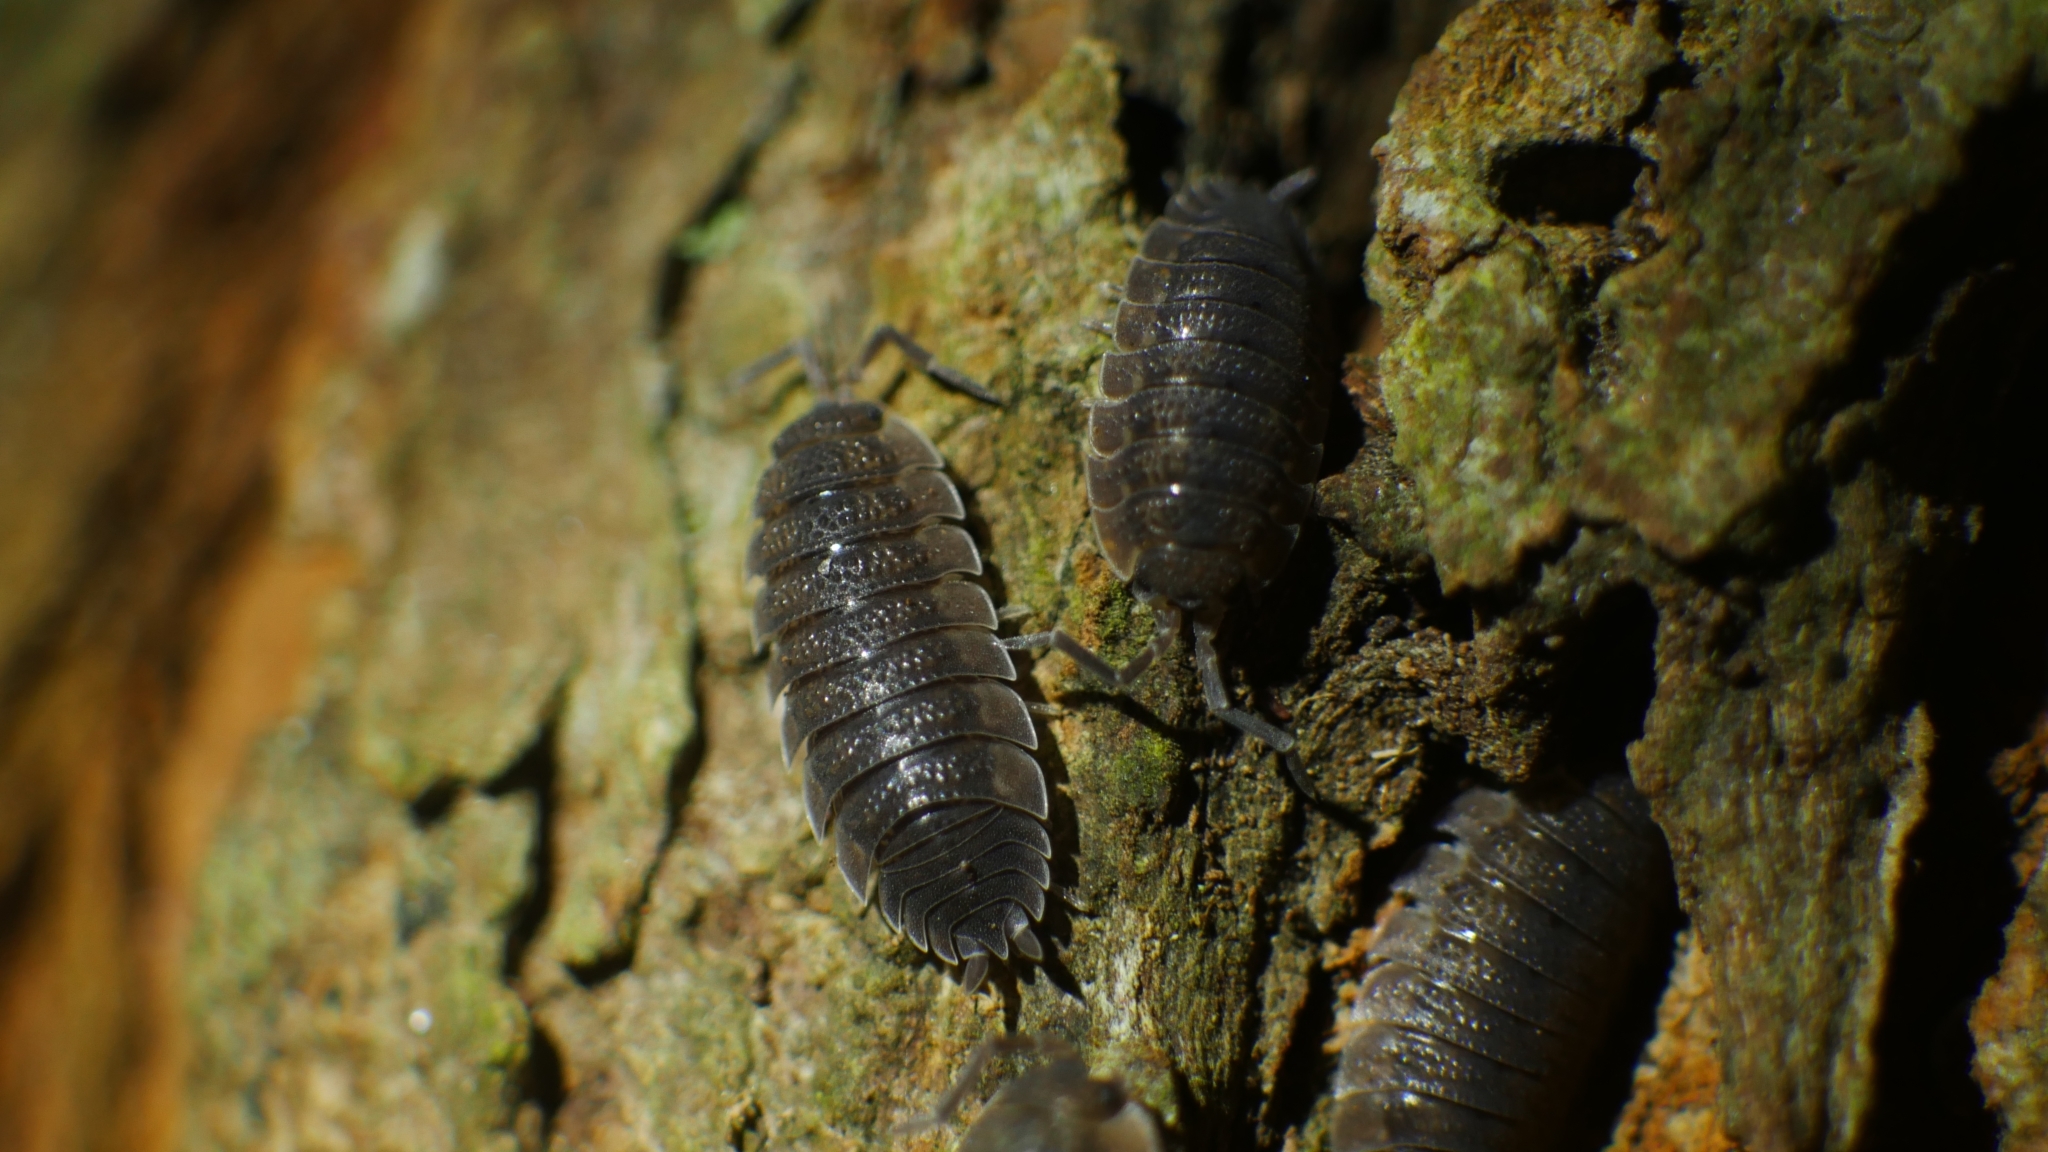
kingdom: Animalia
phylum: Arthropoda
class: Malacostraca
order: Isopoda
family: Porcellionidae
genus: Porcellio
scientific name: Porcellio scaber
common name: Common rough woodlouse
